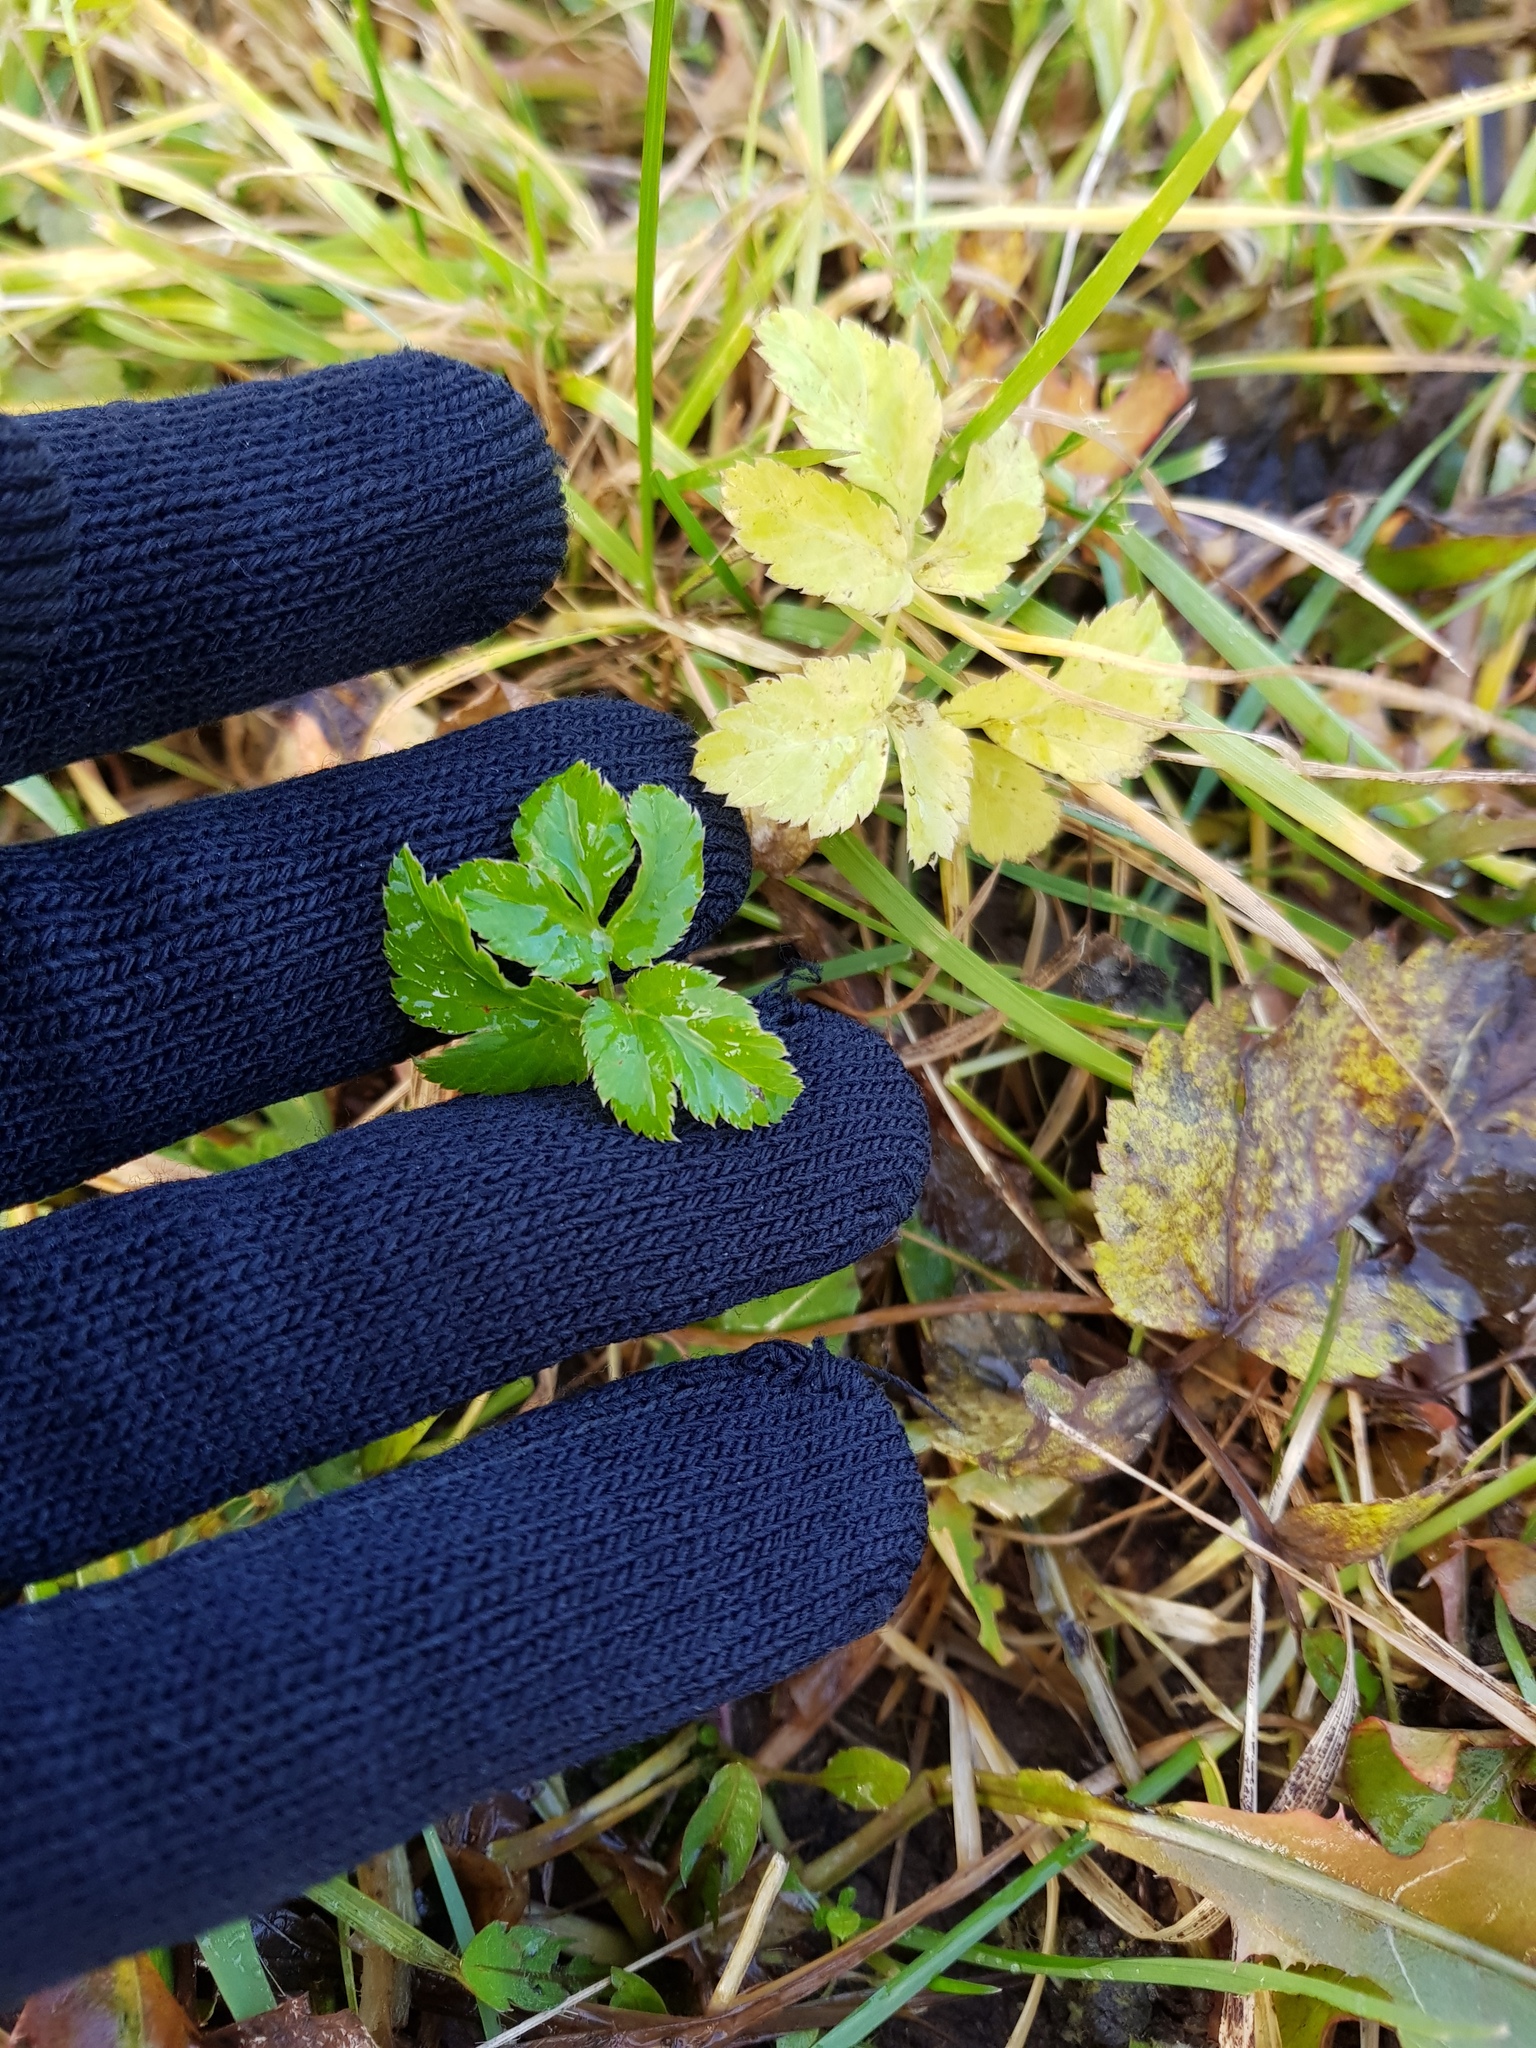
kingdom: Plantae
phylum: Tracheophyta
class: Magnoliopsida
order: Apiales
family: Apiaceae
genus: Aegopodium
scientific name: Aegopodium podagraria
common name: Ground-elder
